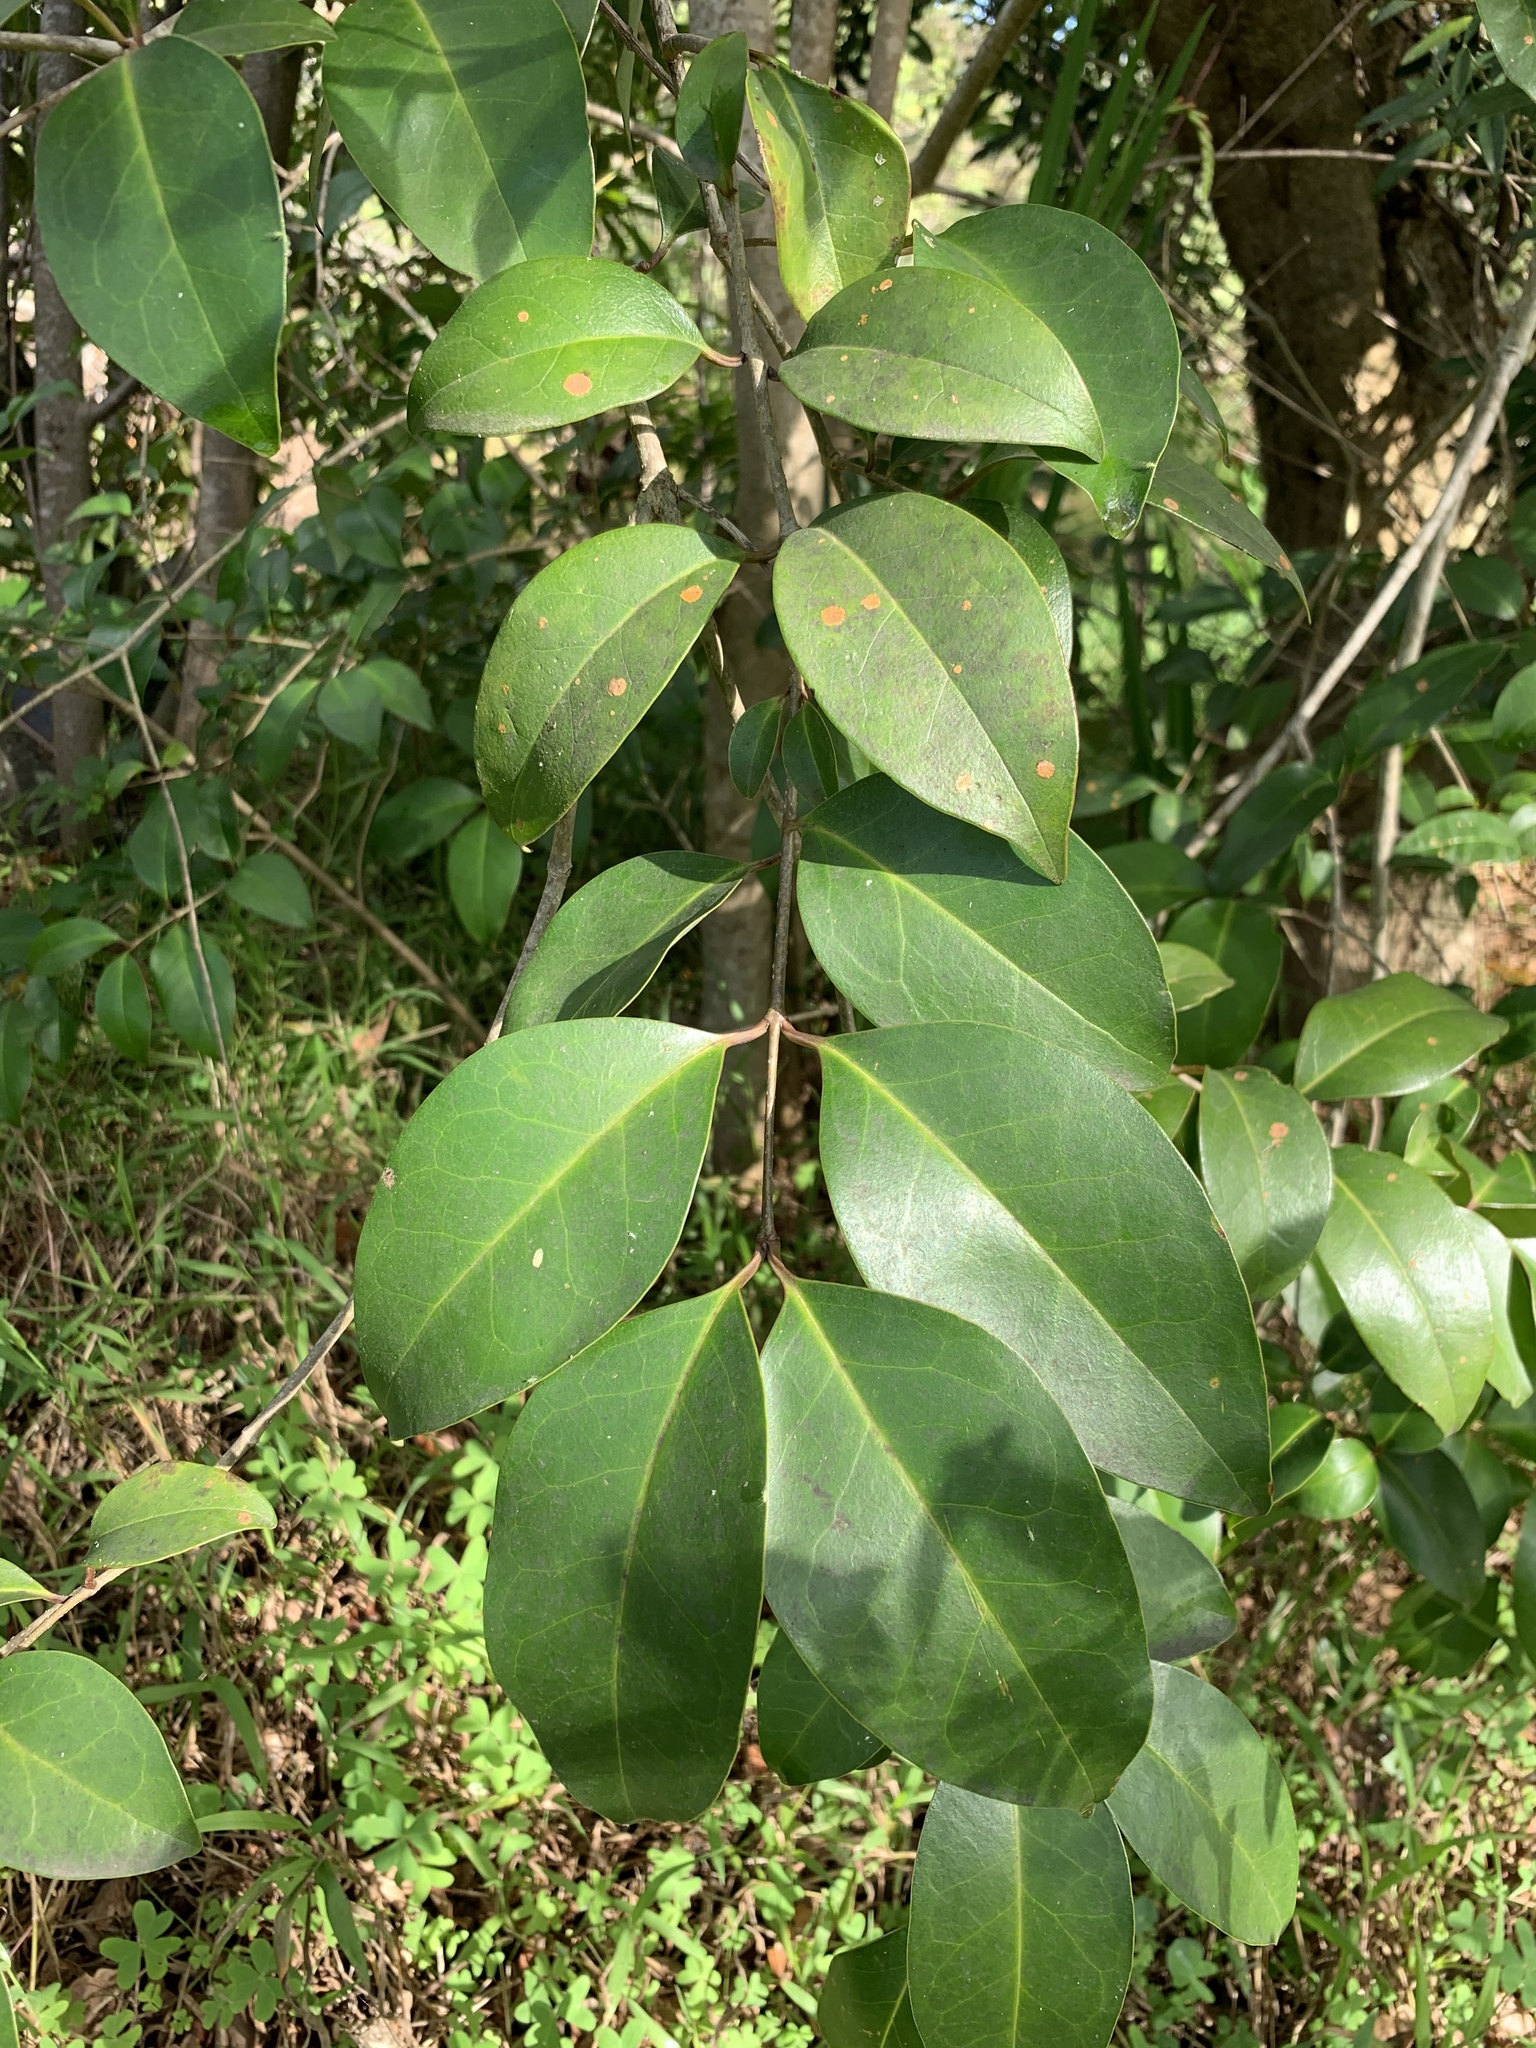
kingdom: Plantae
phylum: Tracheophyta
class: Magnoliopsida
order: Lamiales
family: Oleaceae
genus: Ligustrum
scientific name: Ligustrum lucidum
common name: Glossy privet
